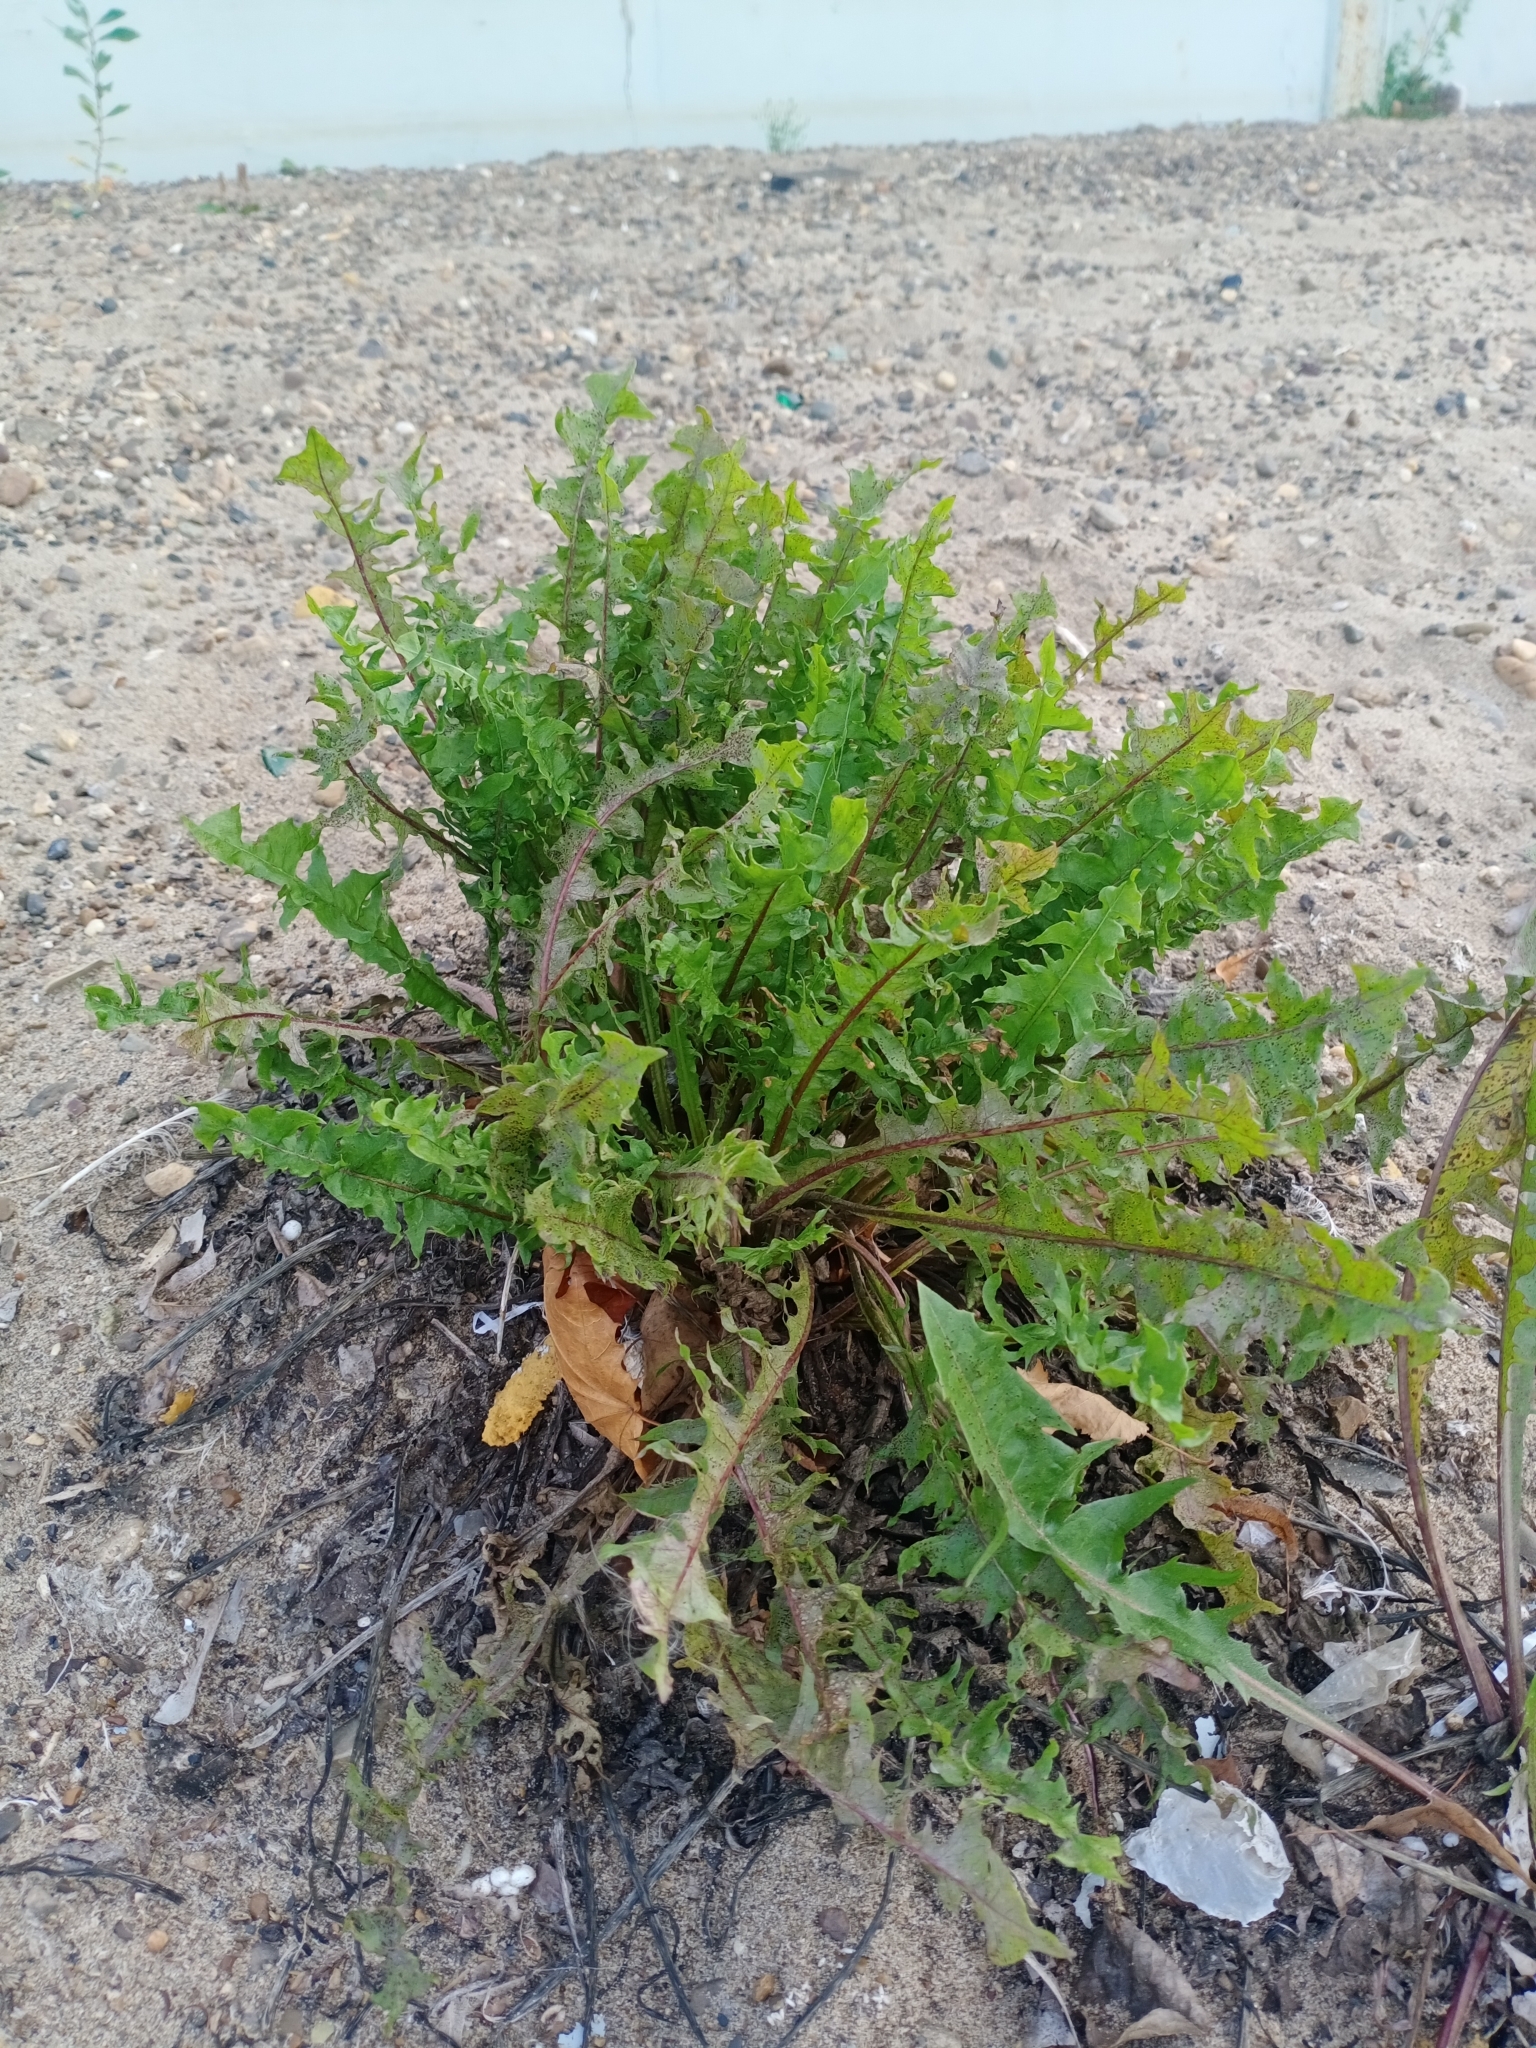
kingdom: Plantae
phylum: Tracheophyta
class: Magnoliopsida
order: Asterales
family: Asteraceae
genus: Taraxacum
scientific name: Taraxacum officinale
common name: Common dandelion
